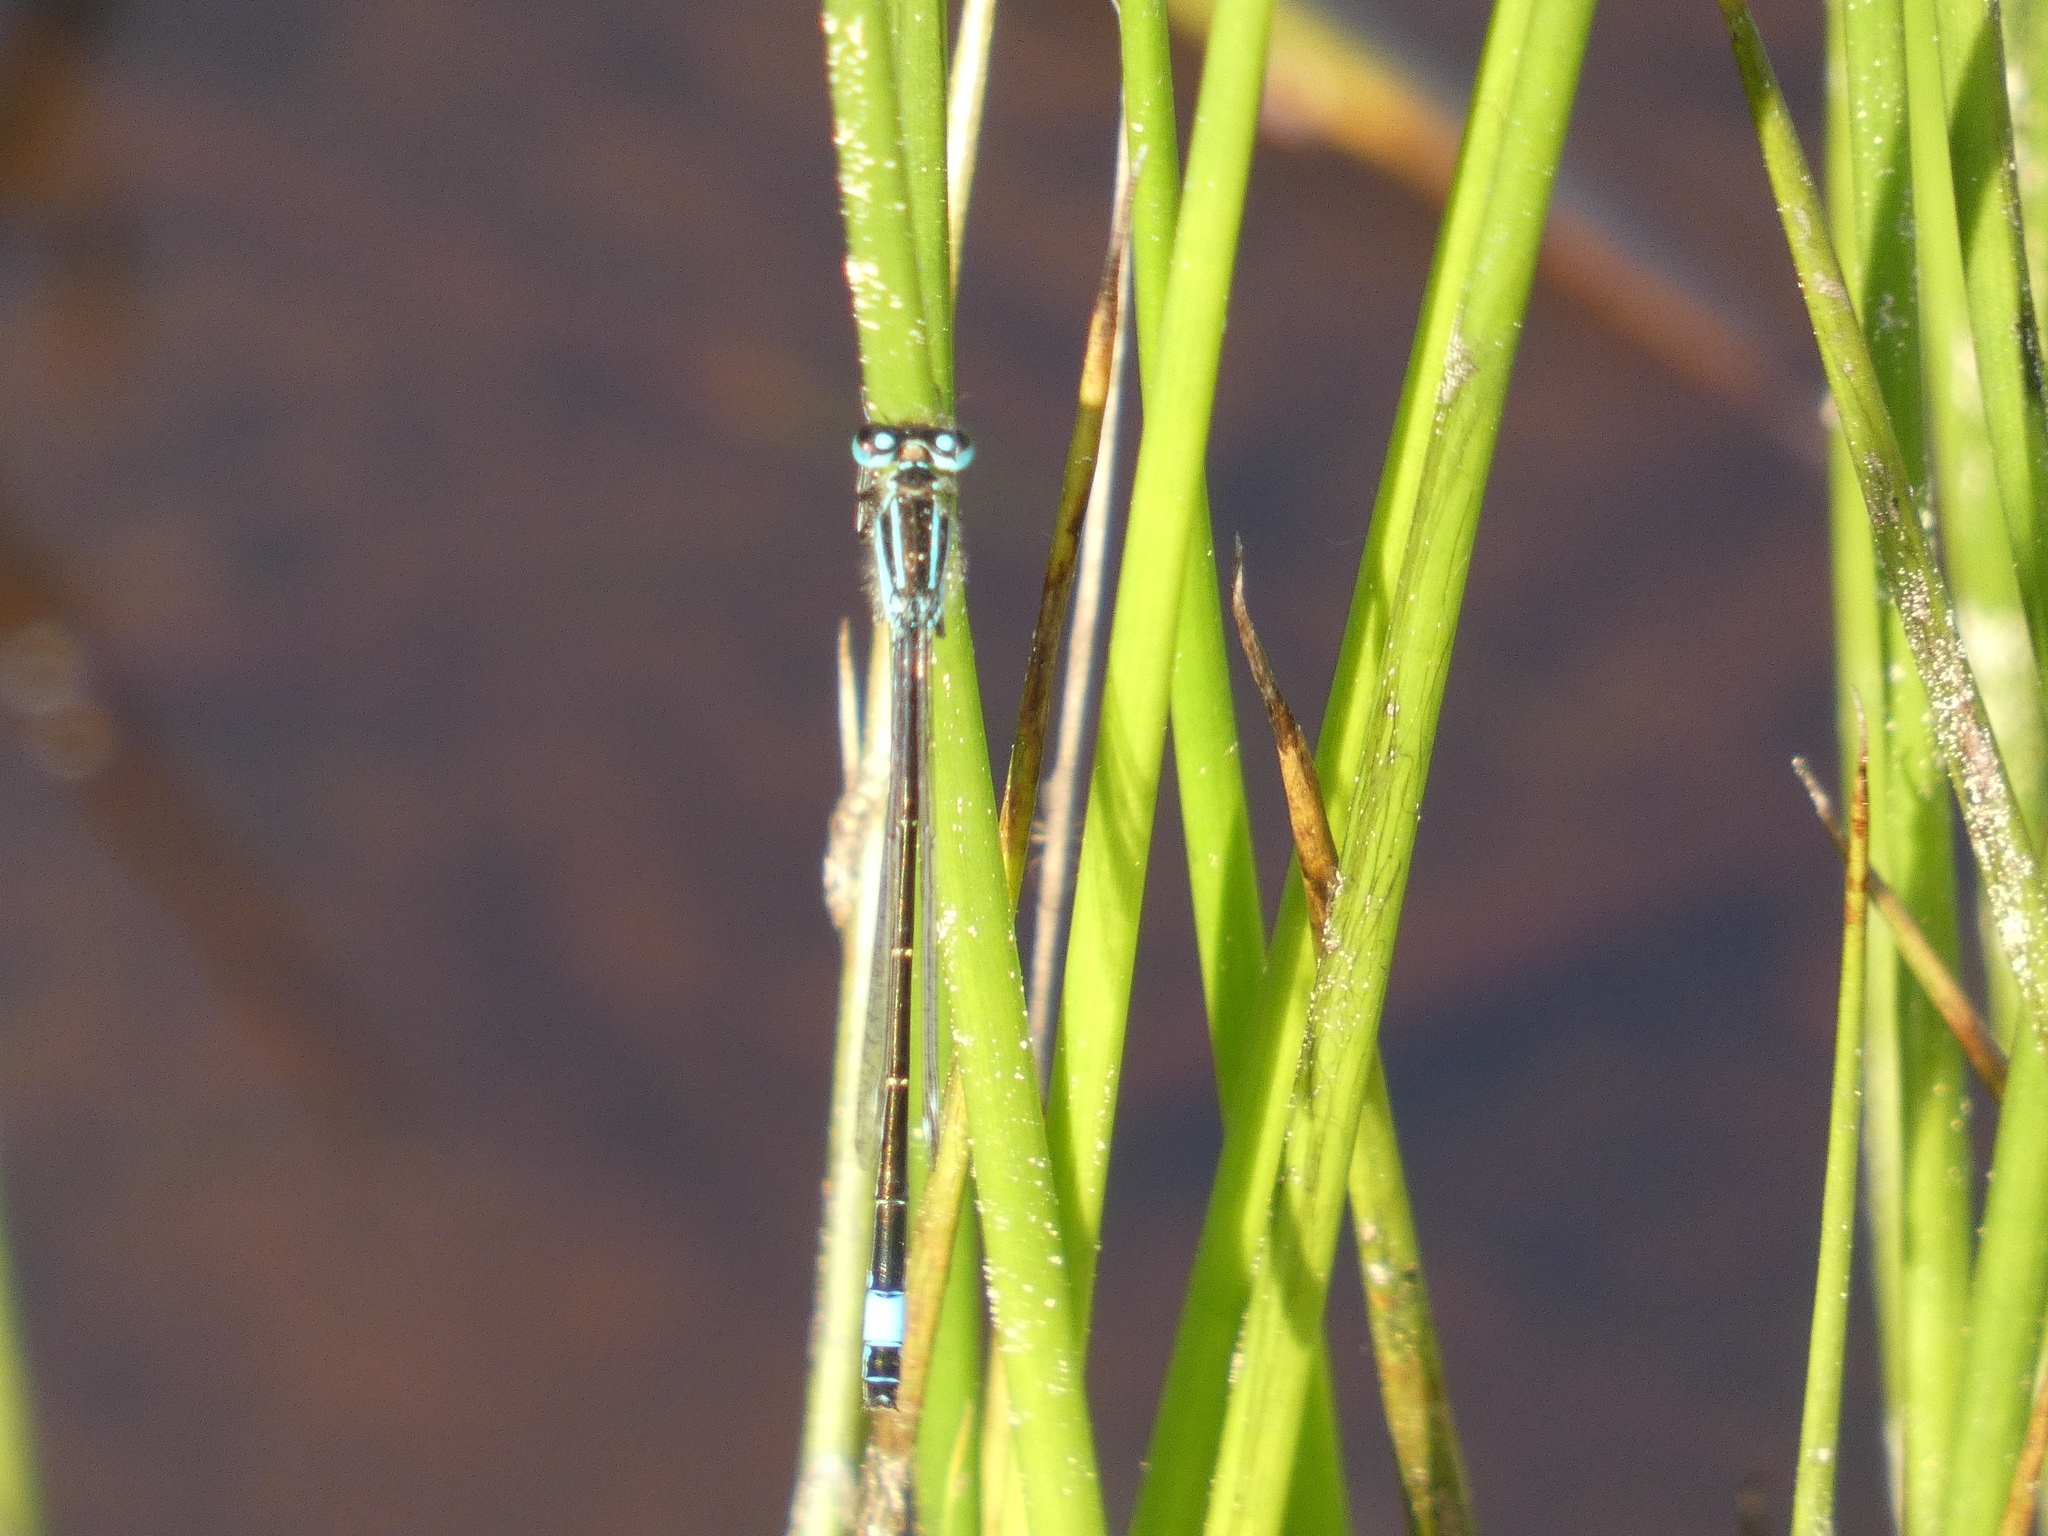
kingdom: Animalia
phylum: Arthropoda
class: Insecta
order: Odonata
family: Coenagrionidae
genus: Ischnura
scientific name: Ischnura elegans
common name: Blue-tailed damselfly
